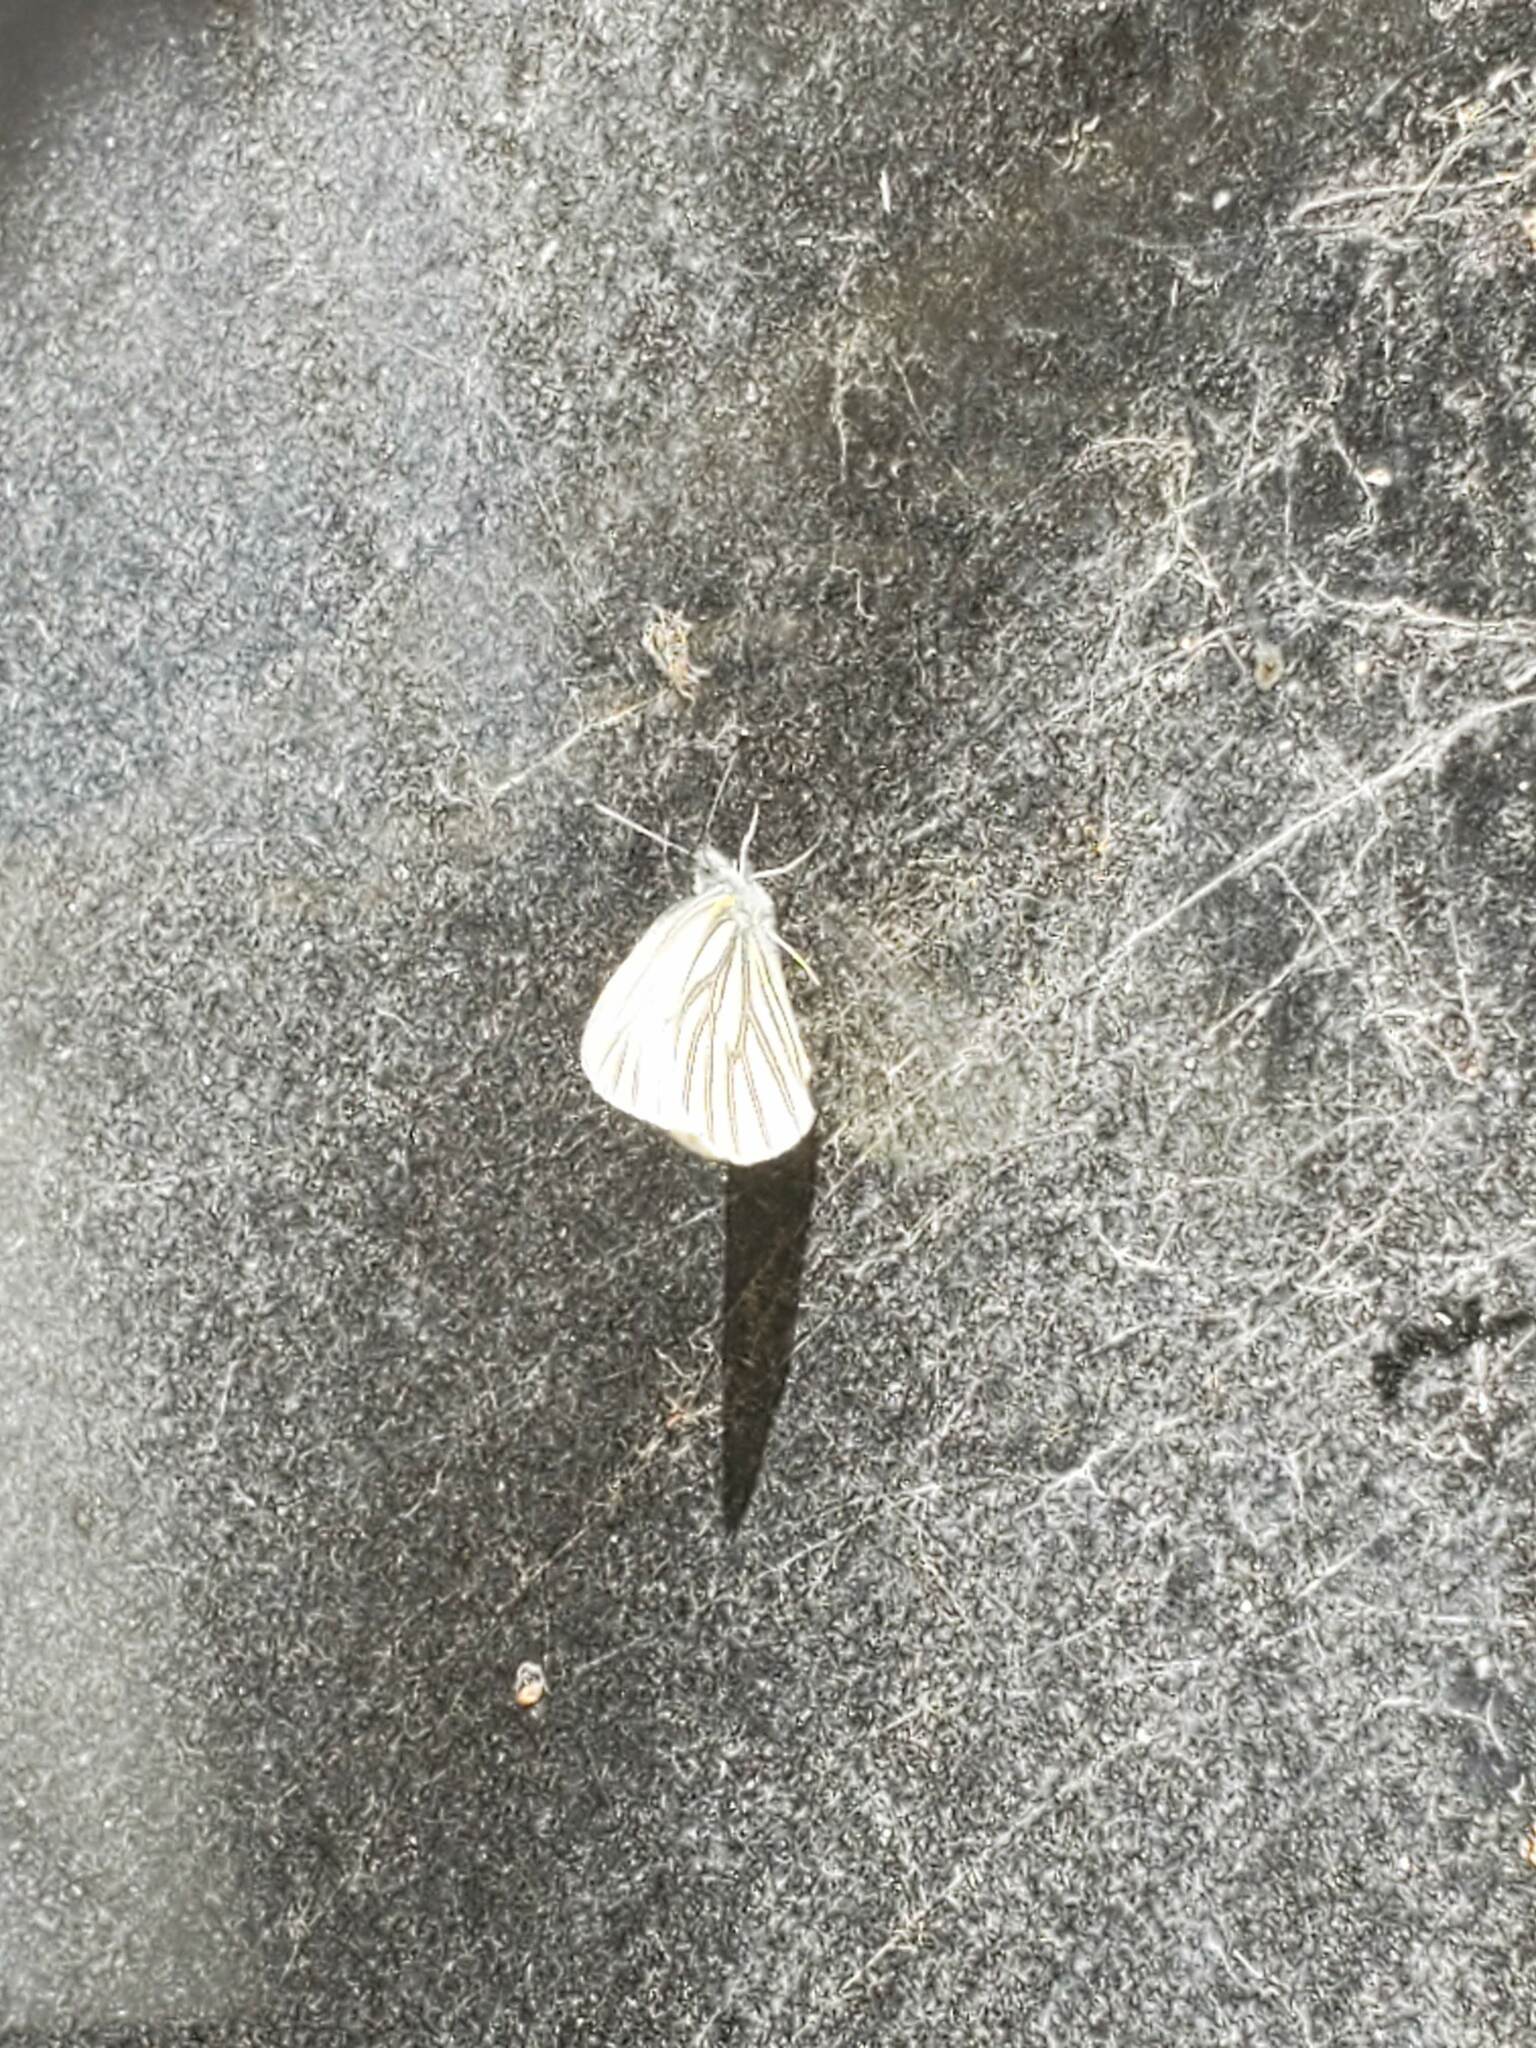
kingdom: Animalia
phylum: Arthropoda
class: Insecta
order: Lepidoptera
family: Pieridae
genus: Pieris
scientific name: Pieris oleracea
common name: Mustard white
